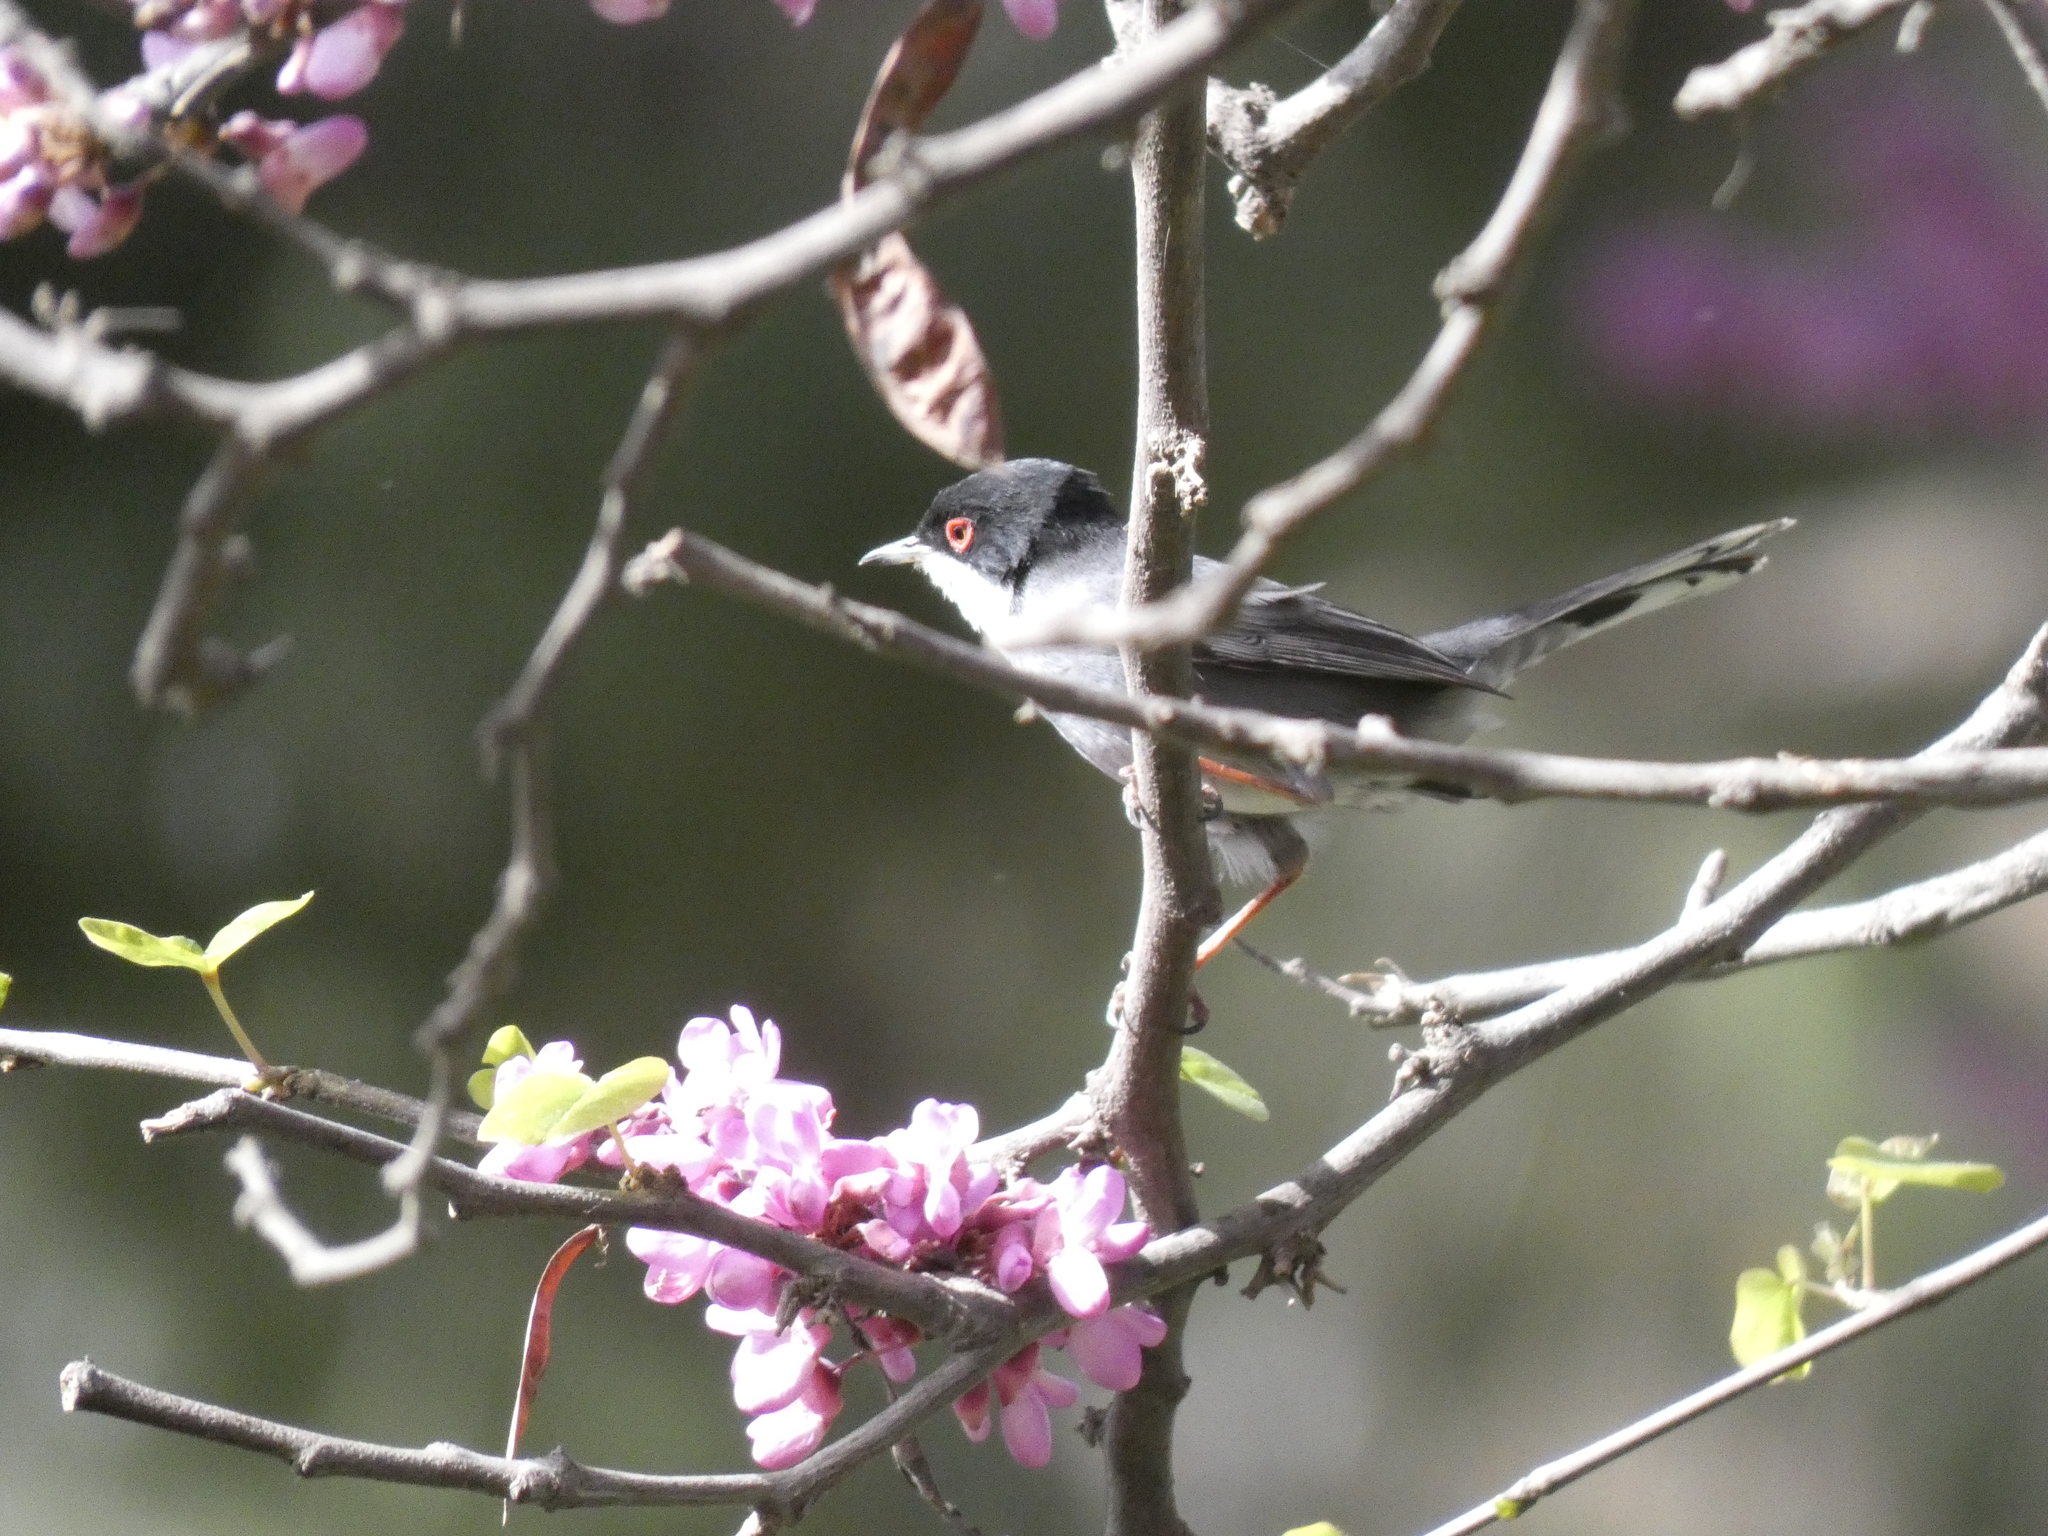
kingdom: Animalia
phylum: Chordata
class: Aves
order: Passeriformes
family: Sylviidae
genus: Curruca
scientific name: Curruca melanocephala
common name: Sardinian warbler
